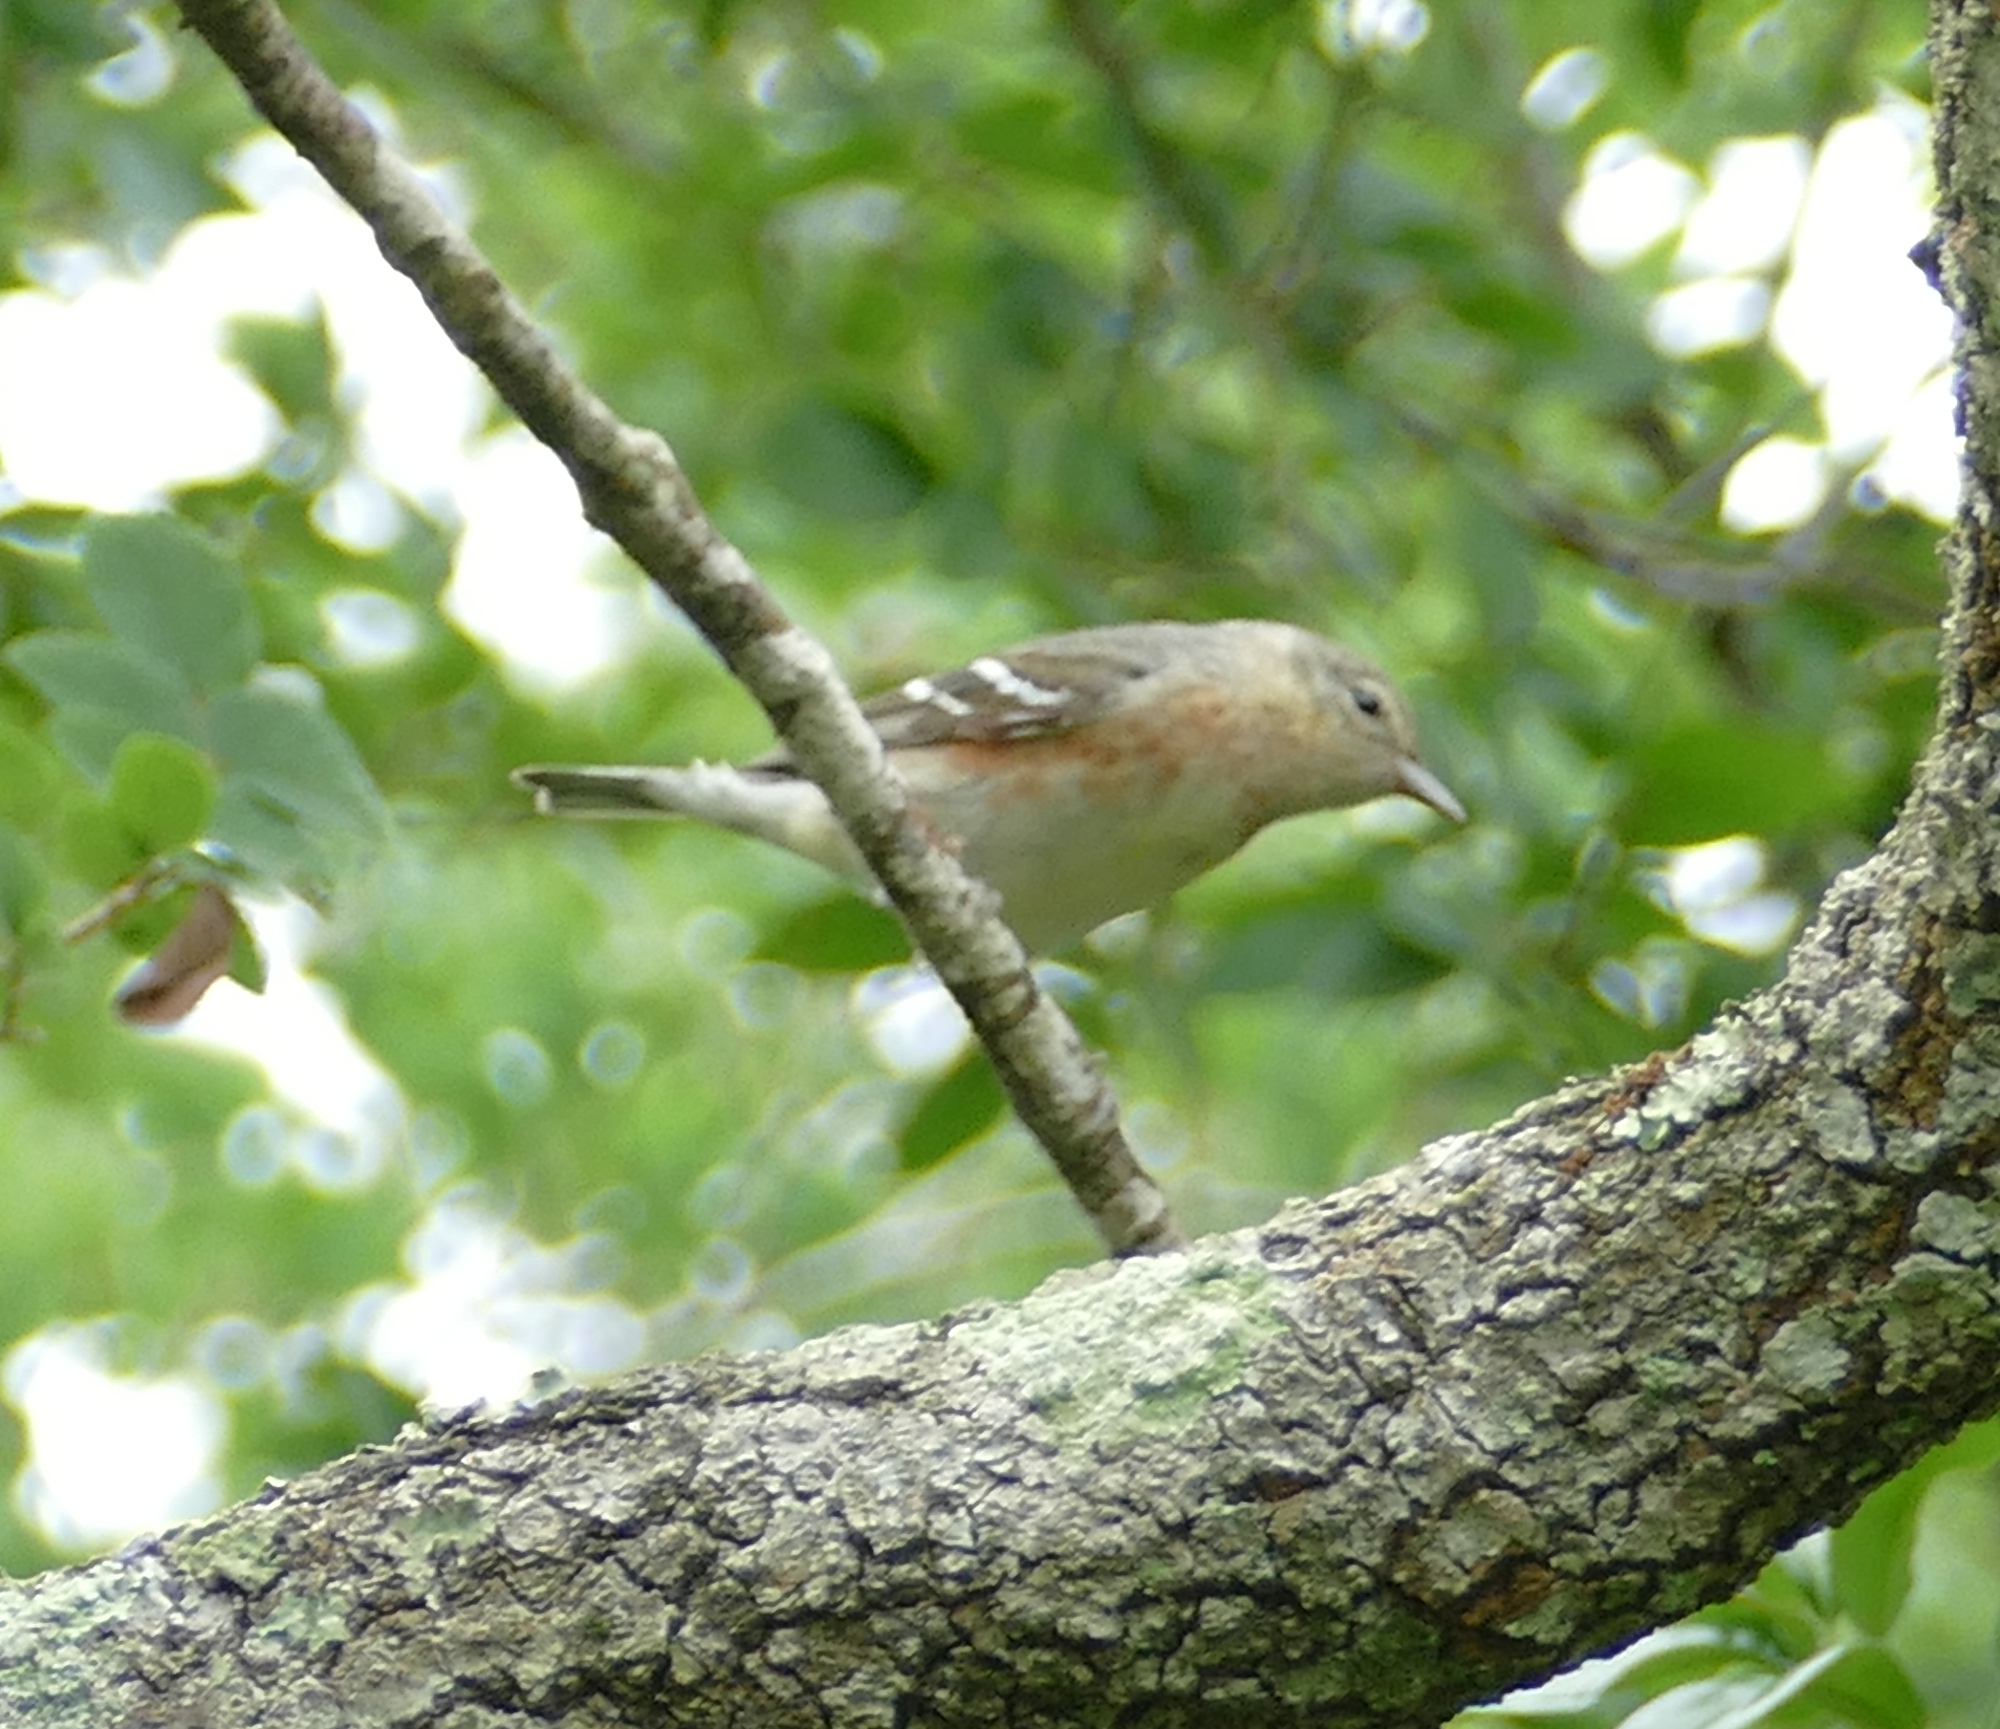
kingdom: Animalia
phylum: Chordata
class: Aves
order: Passeriformes
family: Parulidae
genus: Setophaga
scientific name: Setophaga castanea
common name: Bay-breasted warbler
